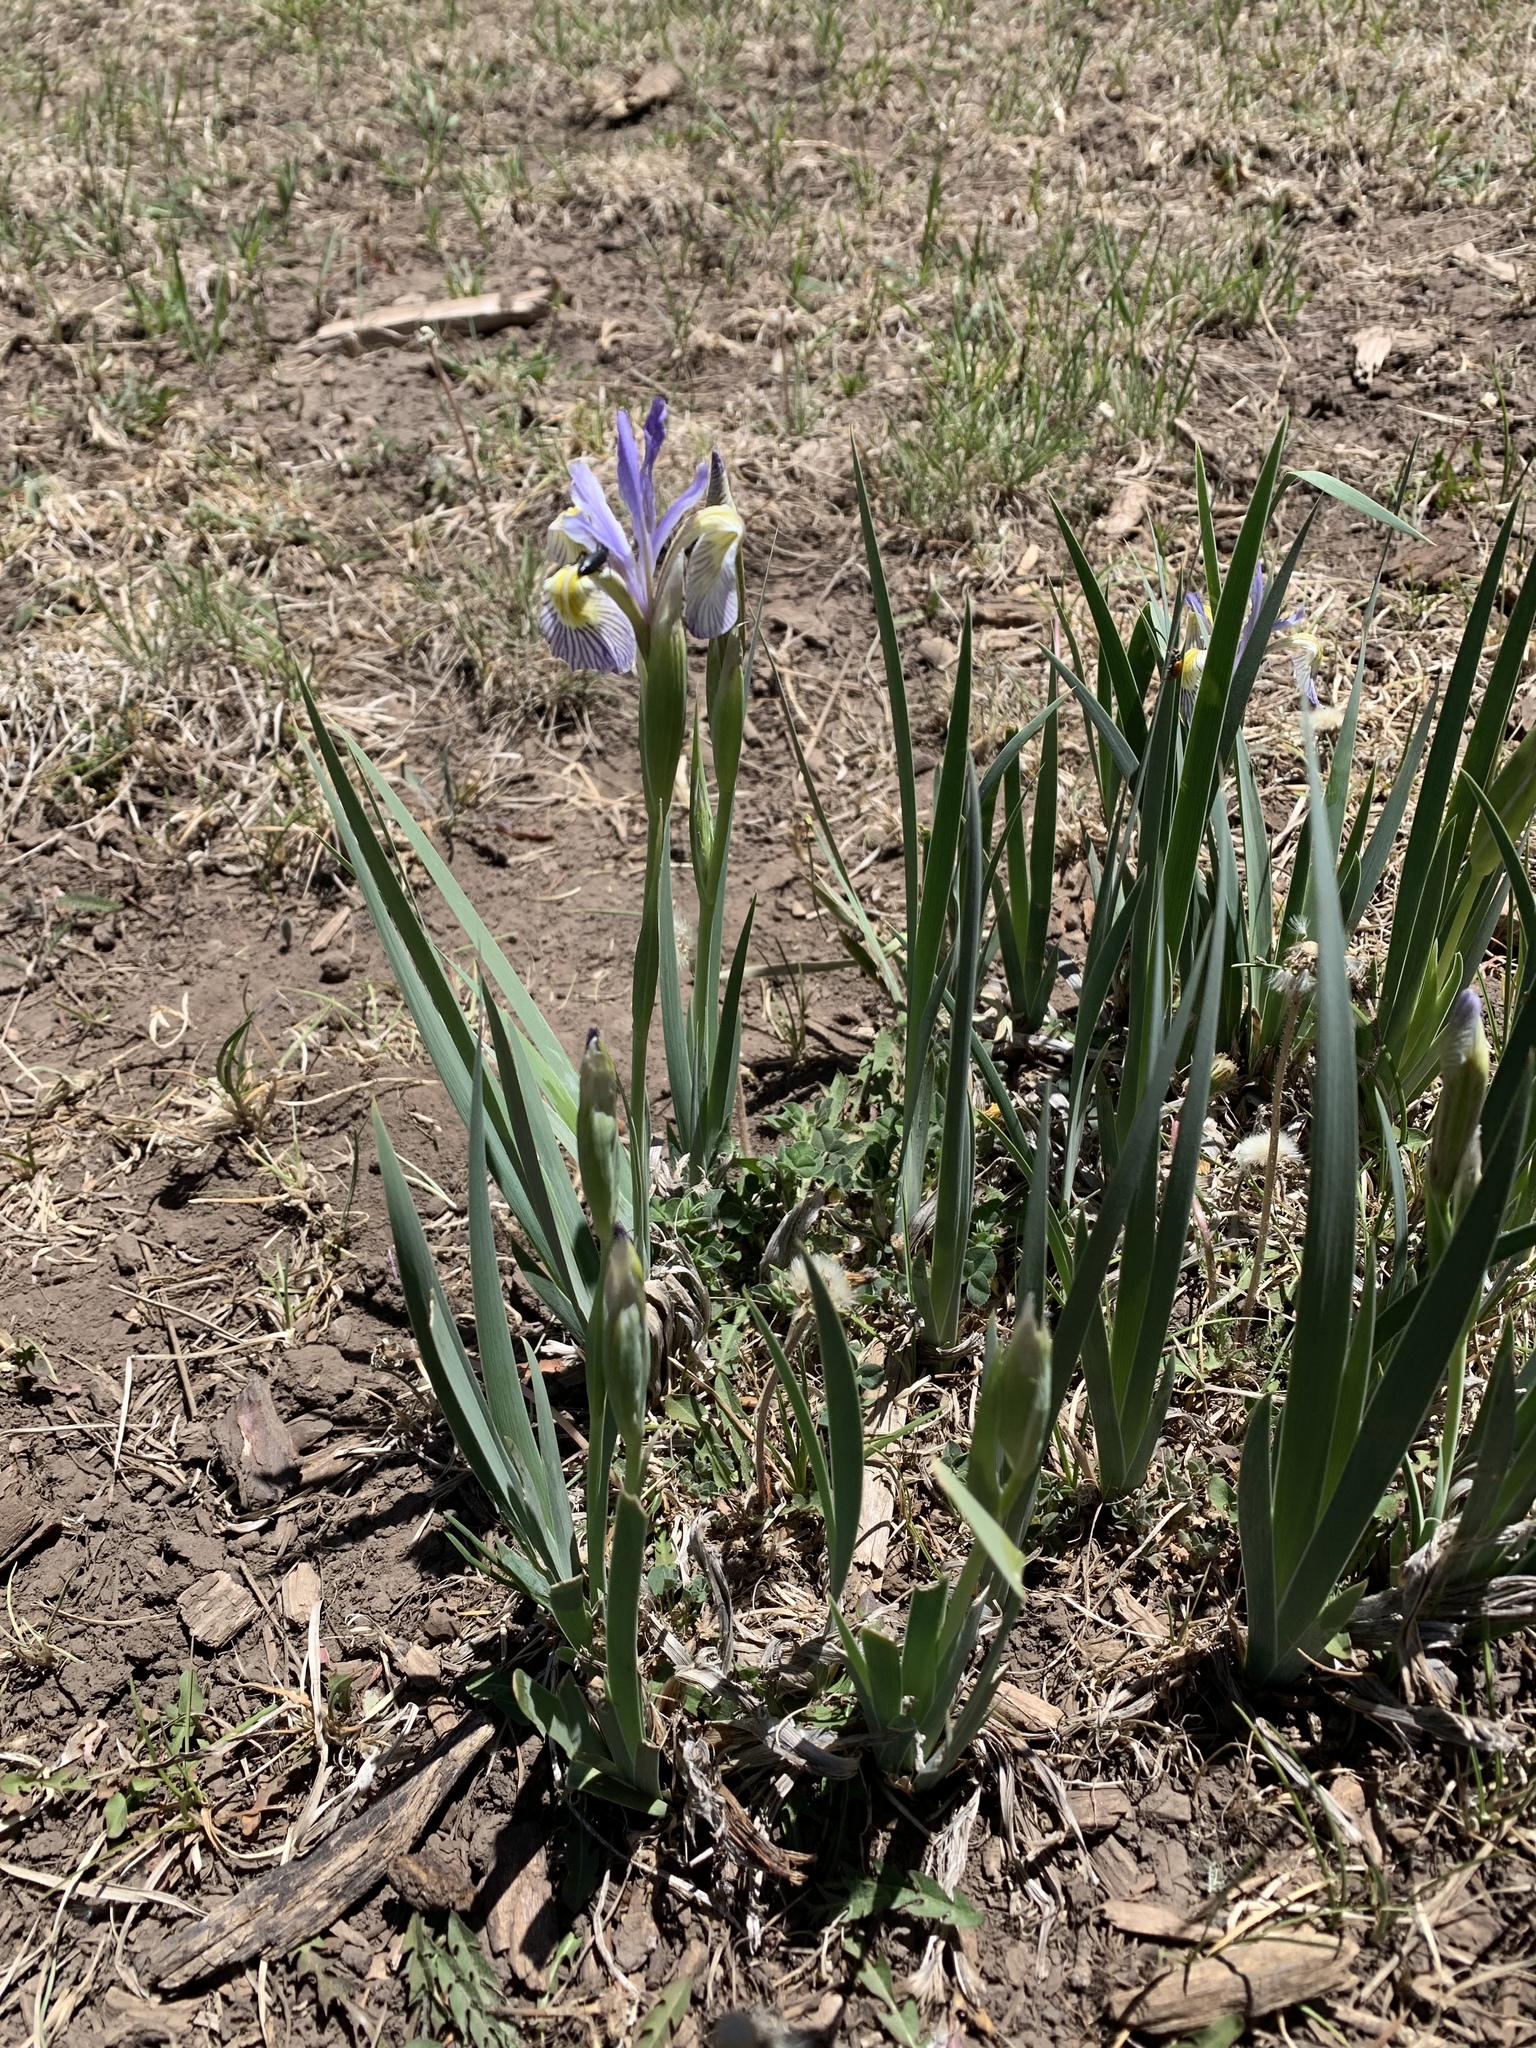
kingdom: Plantae
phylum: Tracheophyta
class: Liliopsida
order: Asparagales
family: Iridaceae
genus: Iris
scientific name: Iris missouriensis
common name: Rocky mountain iris
